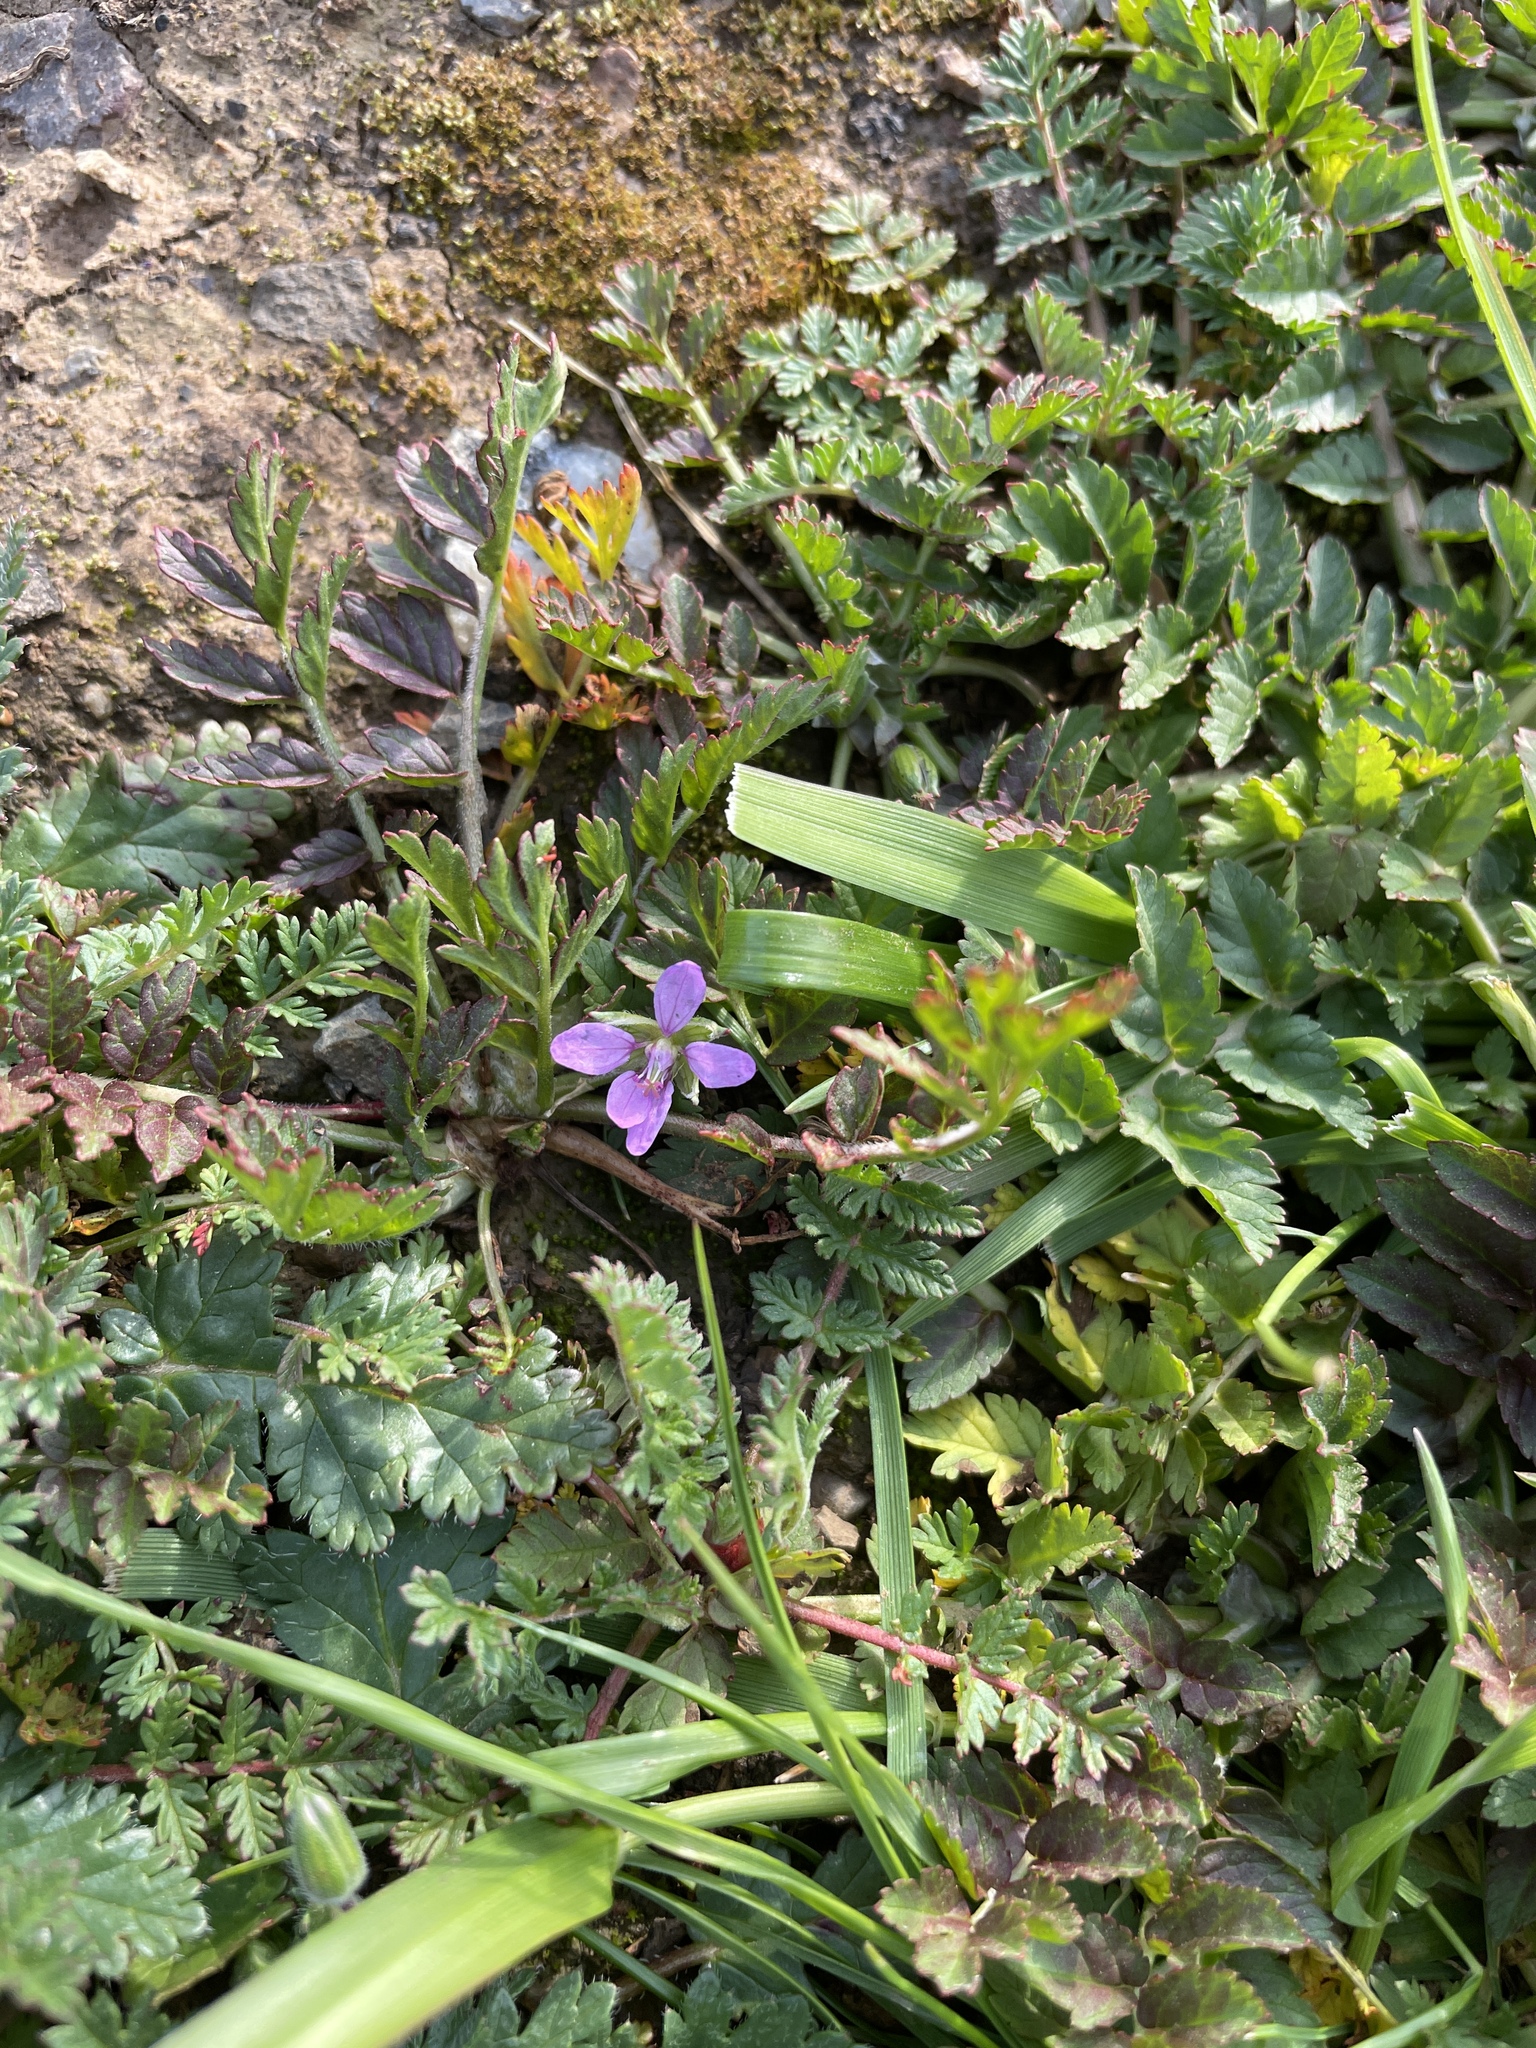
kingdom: Plantae
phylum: Tracheophyta
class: Magnoliopsida
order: Geraniales
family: Geraniaceae
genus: Erodium
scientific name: Erodium moschatum
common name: Musk stork's-bill
